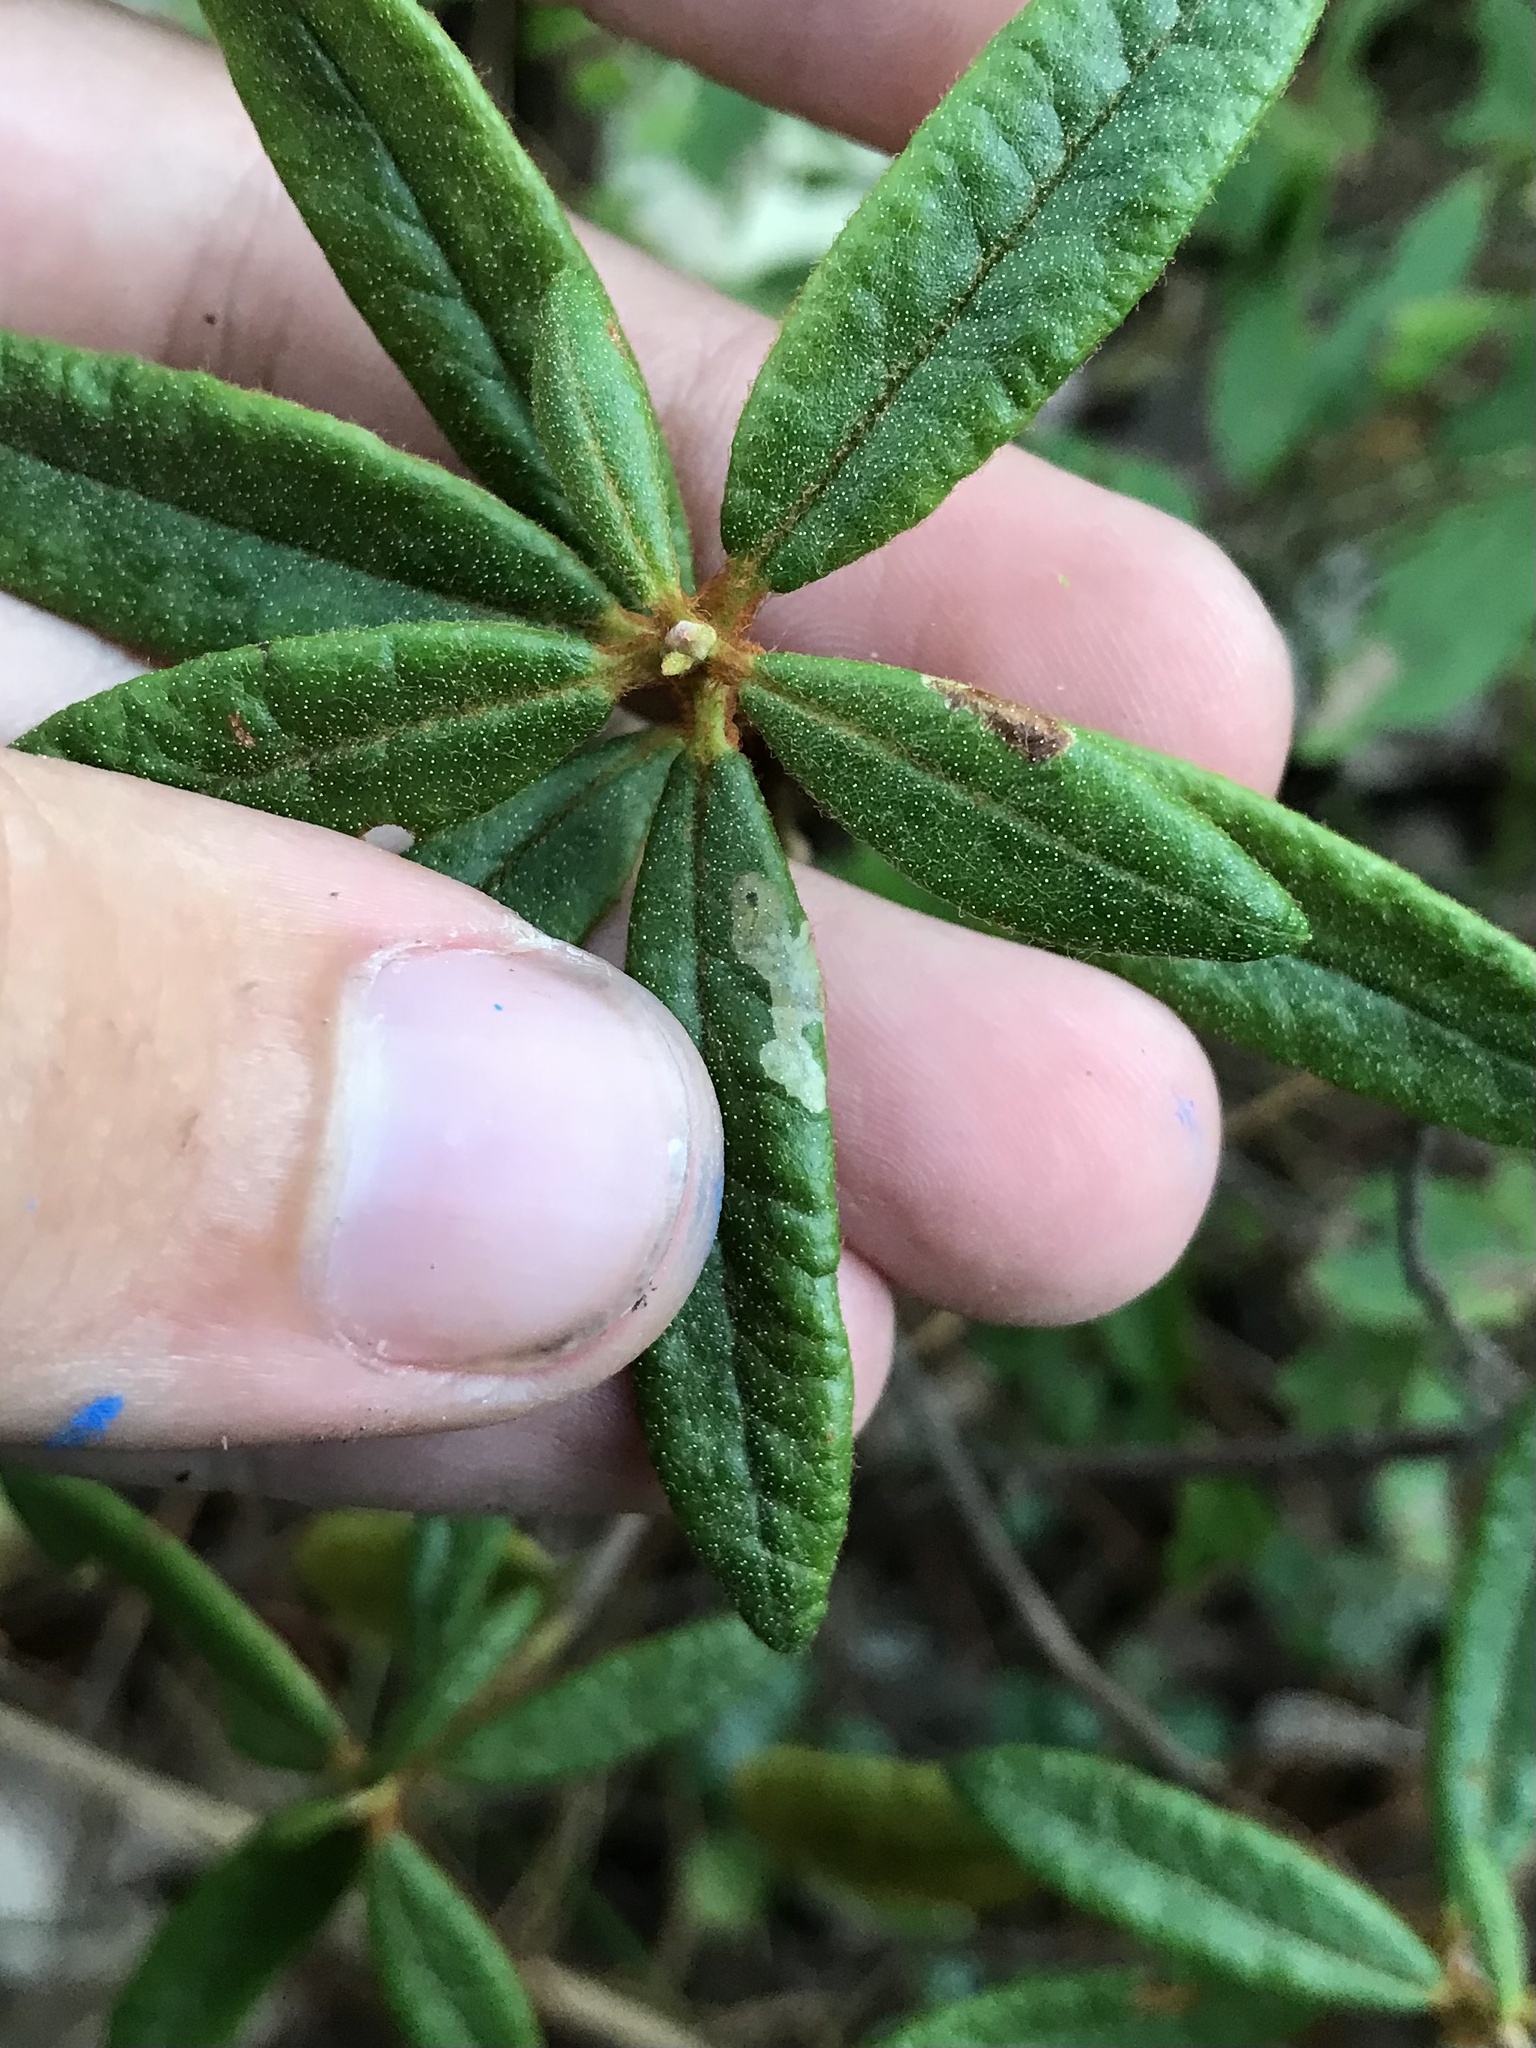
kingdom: Animalia
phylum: Arthropoda
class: Insecta
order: Lepidoptera
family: Gracillariidae
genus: Phyllonorycter
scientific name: Phyllonorycter ledella
